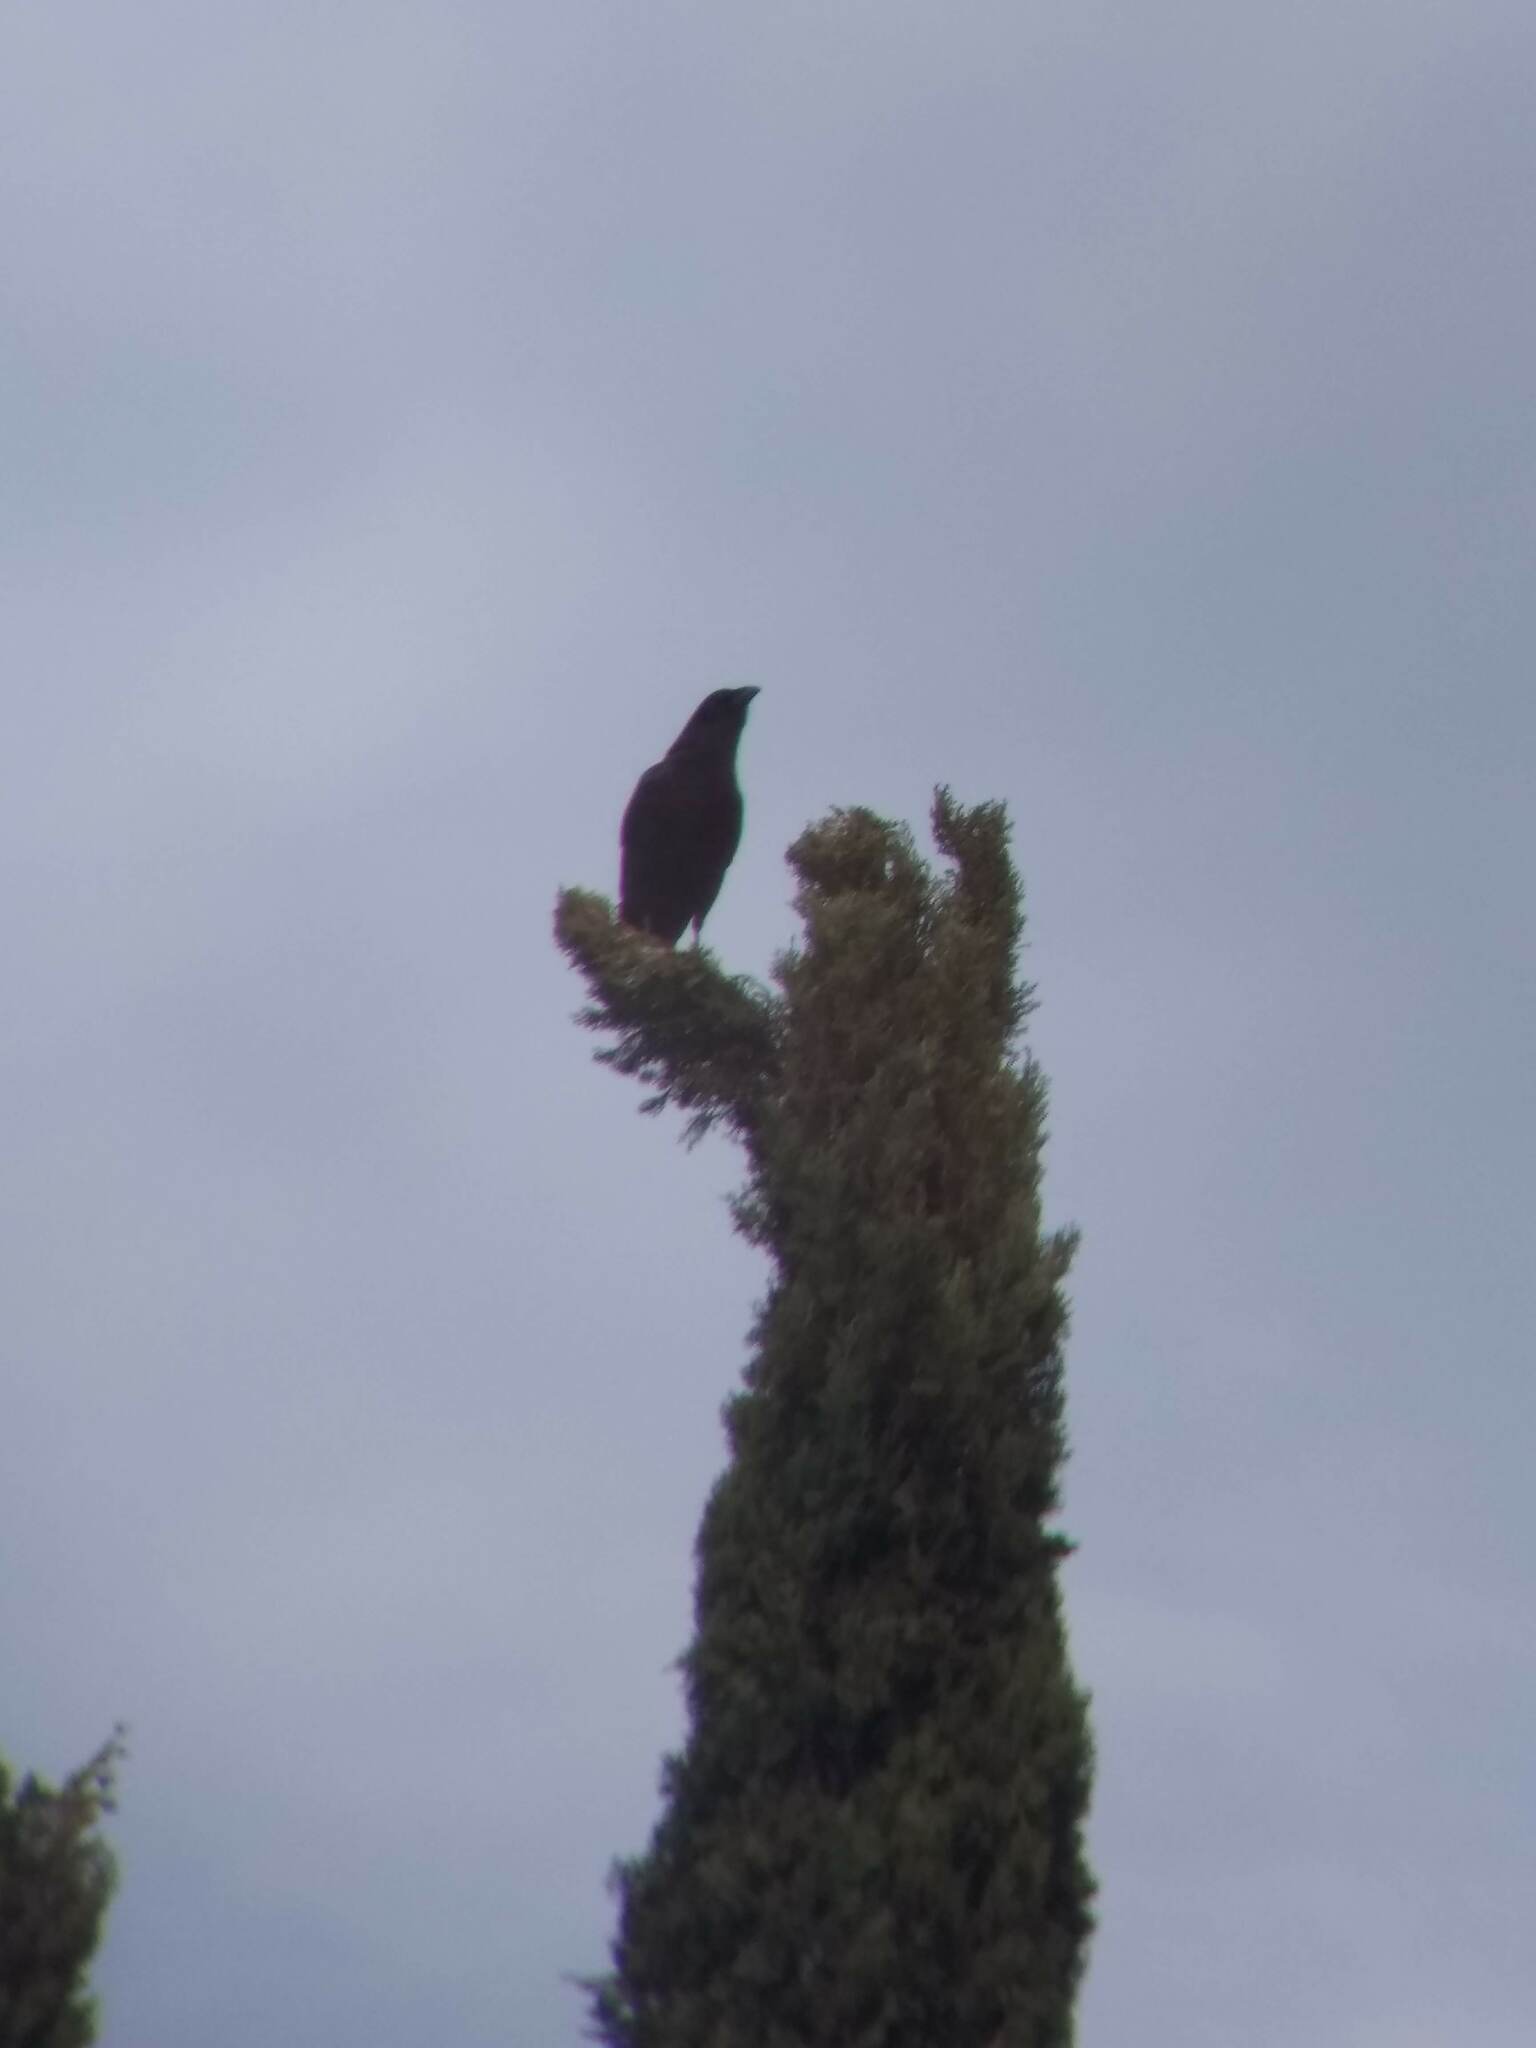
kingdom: Animalia
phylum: Chordata
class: Aves
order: Passeriformes
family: Corvidae
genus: Corvus
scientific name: Corvus brachyrhynchos
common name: American crow
